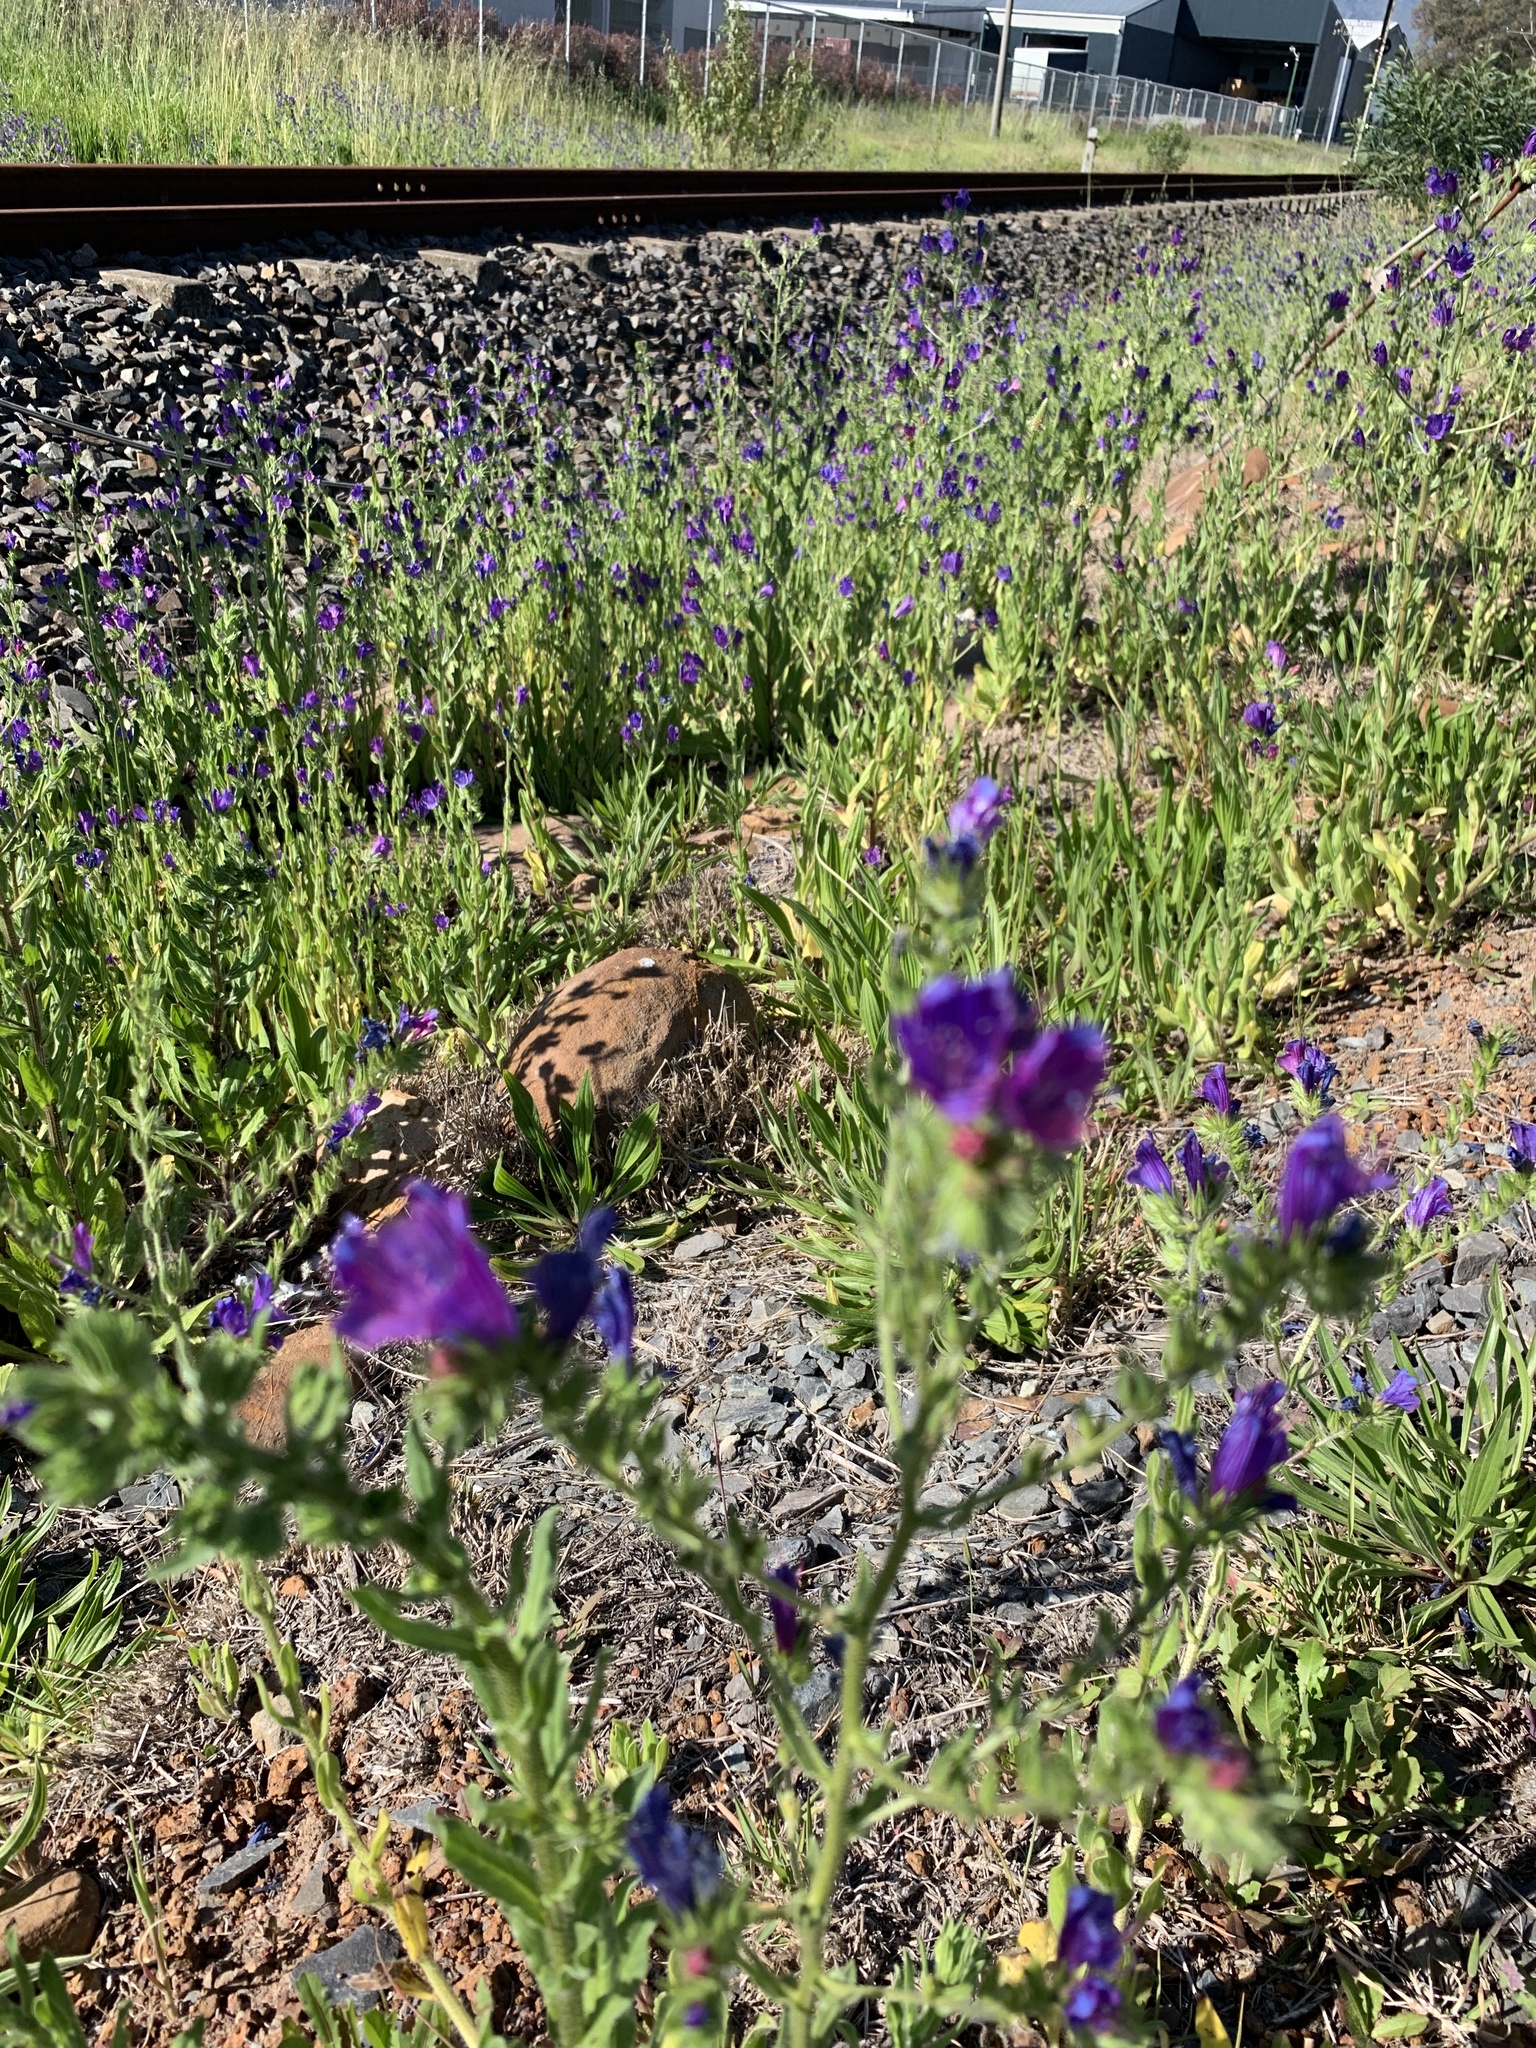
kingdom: Plantae
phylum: Tracheophyta
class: Magnoliopsida
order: Boraginales
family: Boraginaceae
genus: Echium
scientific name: Echium plantagineum
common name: Purple viper's-bugloss
